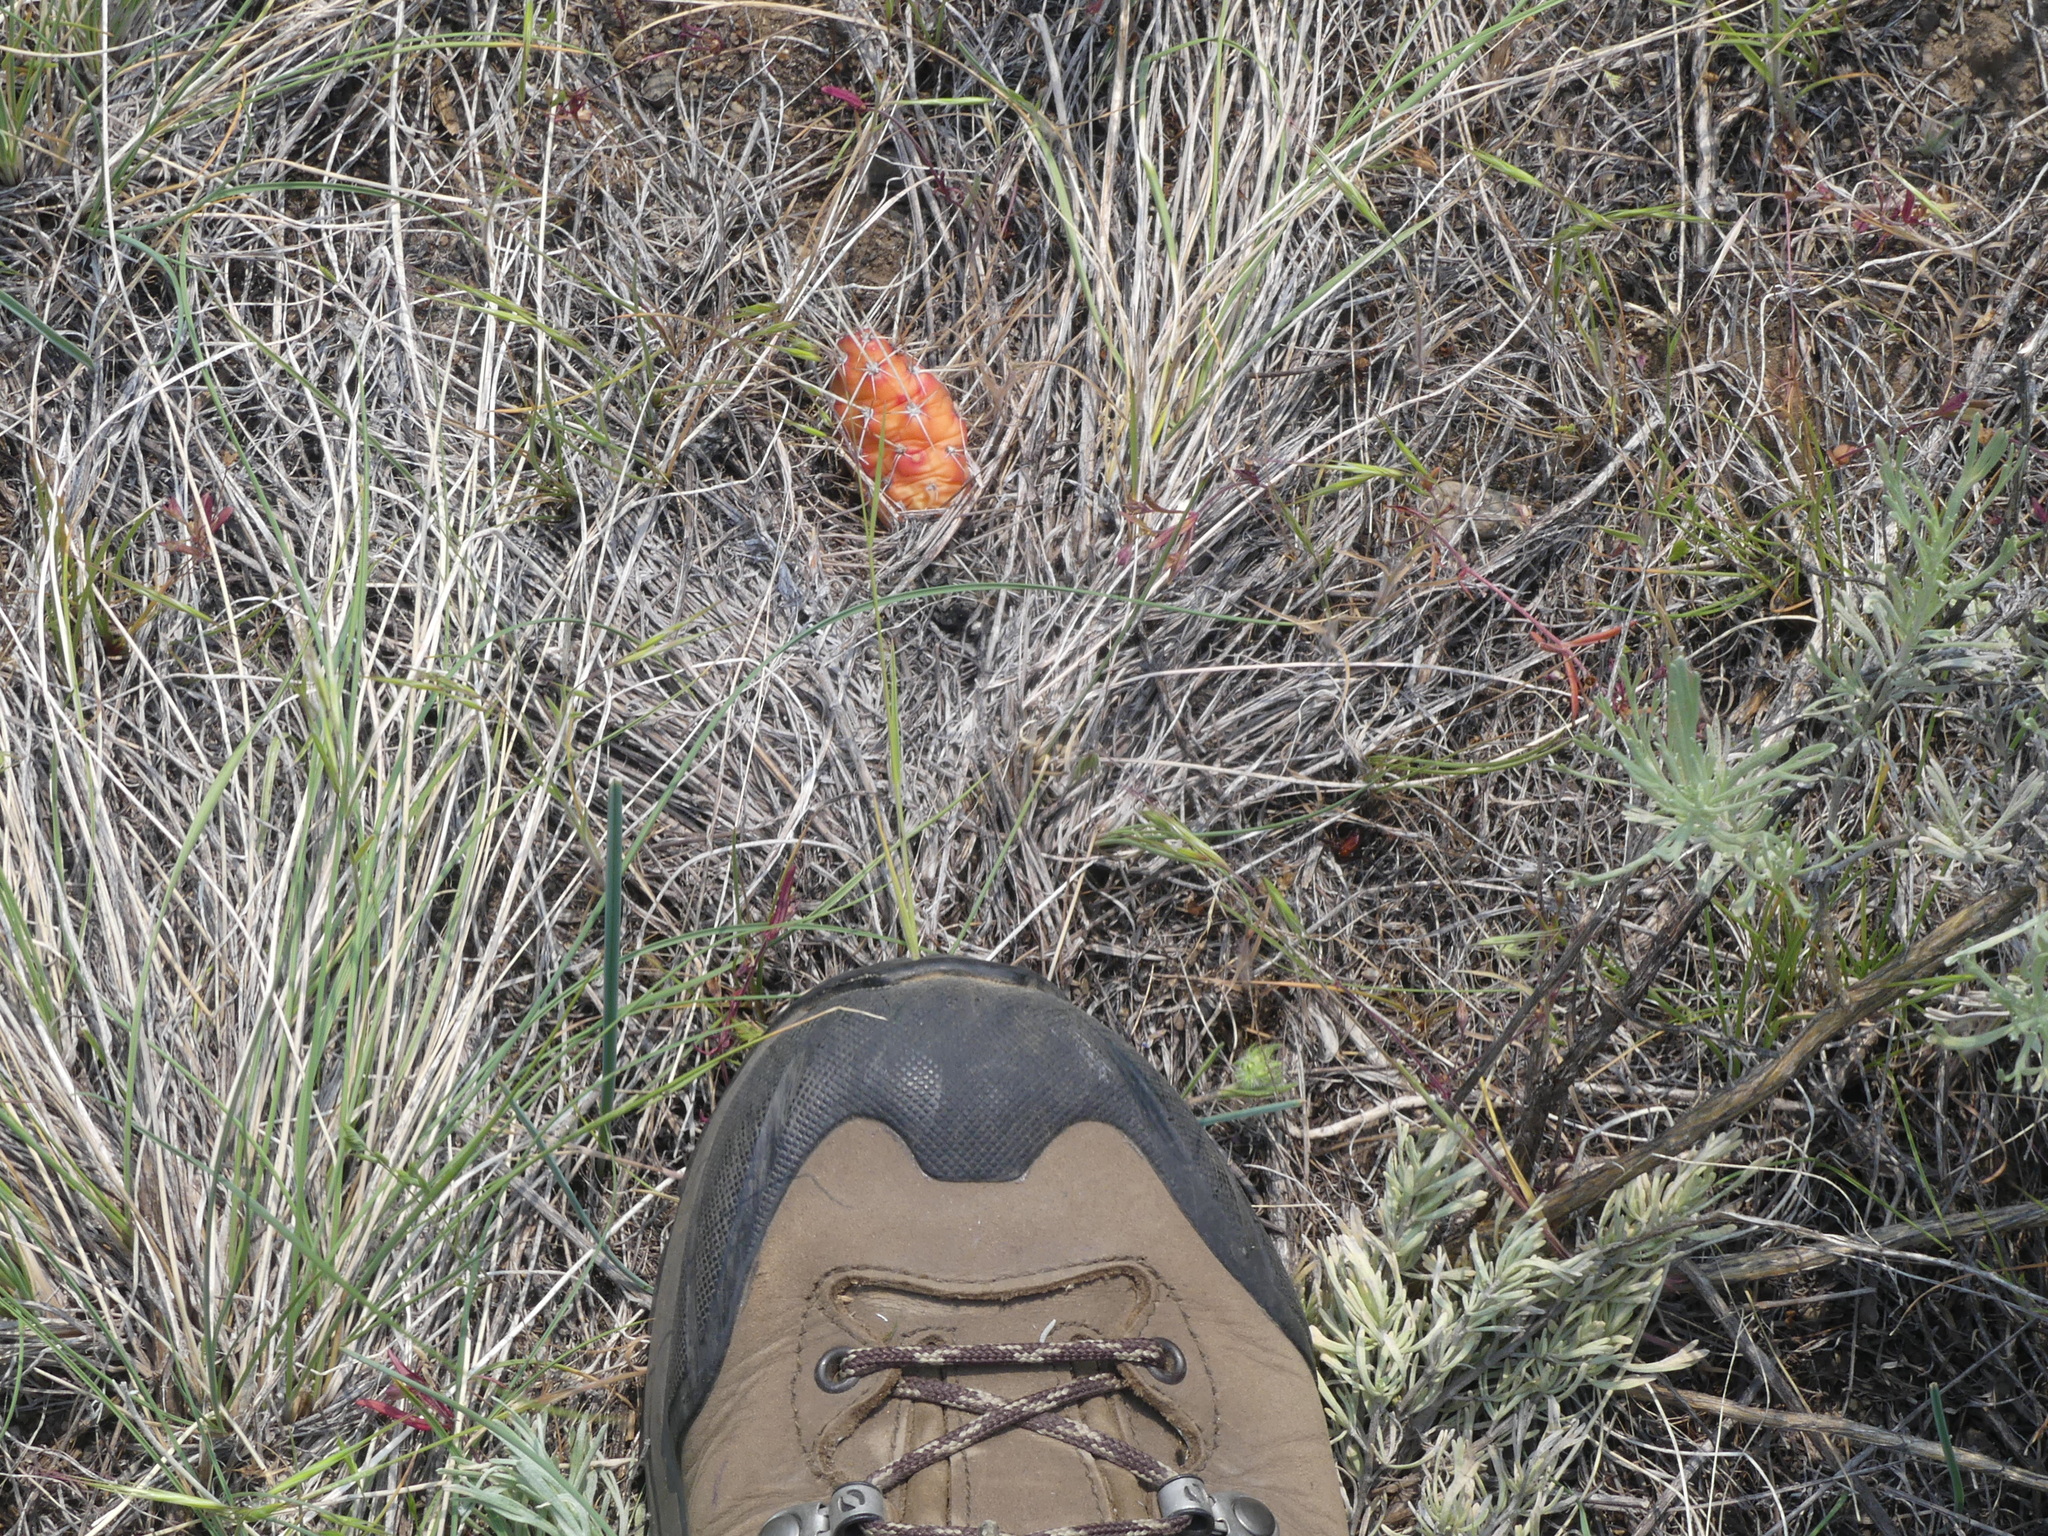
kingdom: Plantae
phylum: Tracheophyta
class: Magnoliopsida
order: Caryophyllales
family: Cactaceae
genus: Opuntia
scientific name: Opuntia fragilis
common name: Brittle cactus
